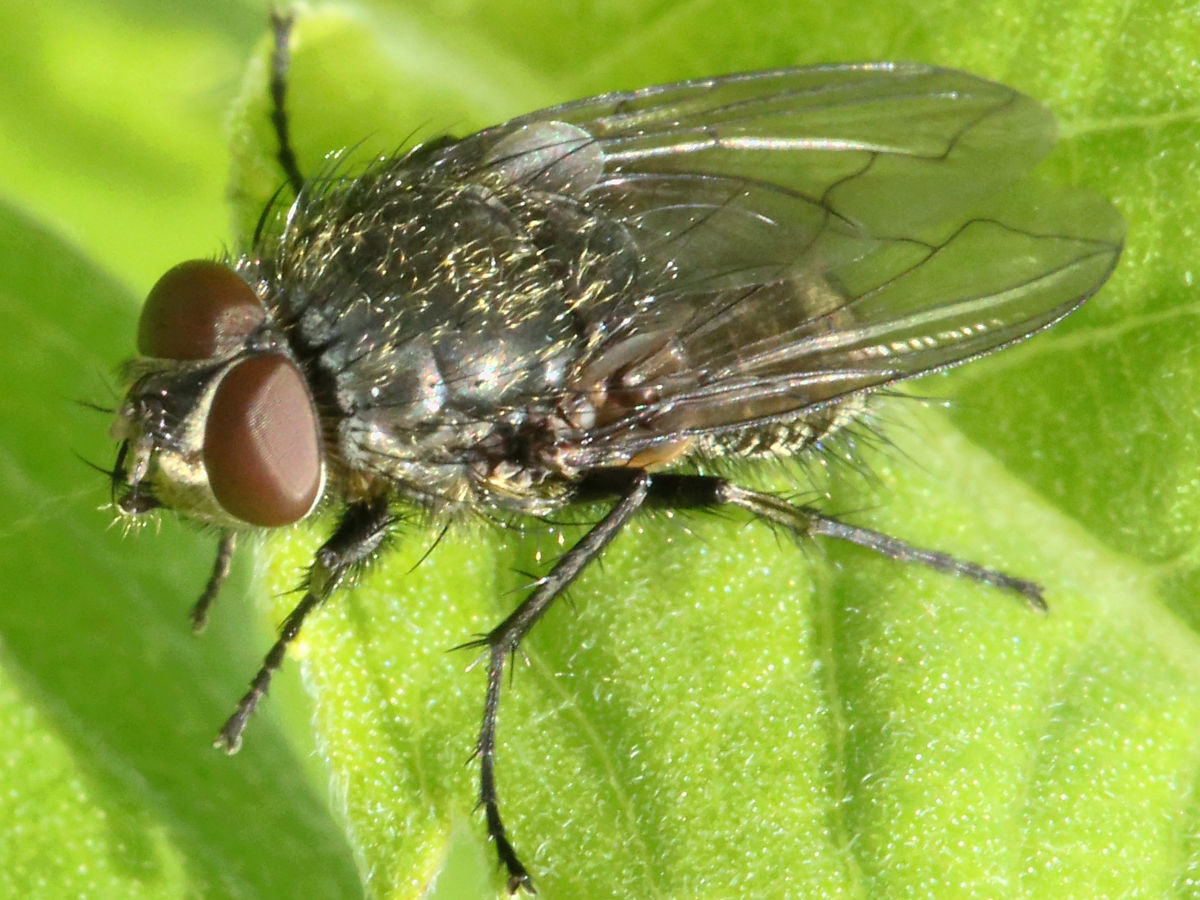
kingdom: Animalia
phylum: Arthropoda
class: Insecta
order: Diptera
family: Polleniidae
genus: Pollenia
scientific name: Pollenia
